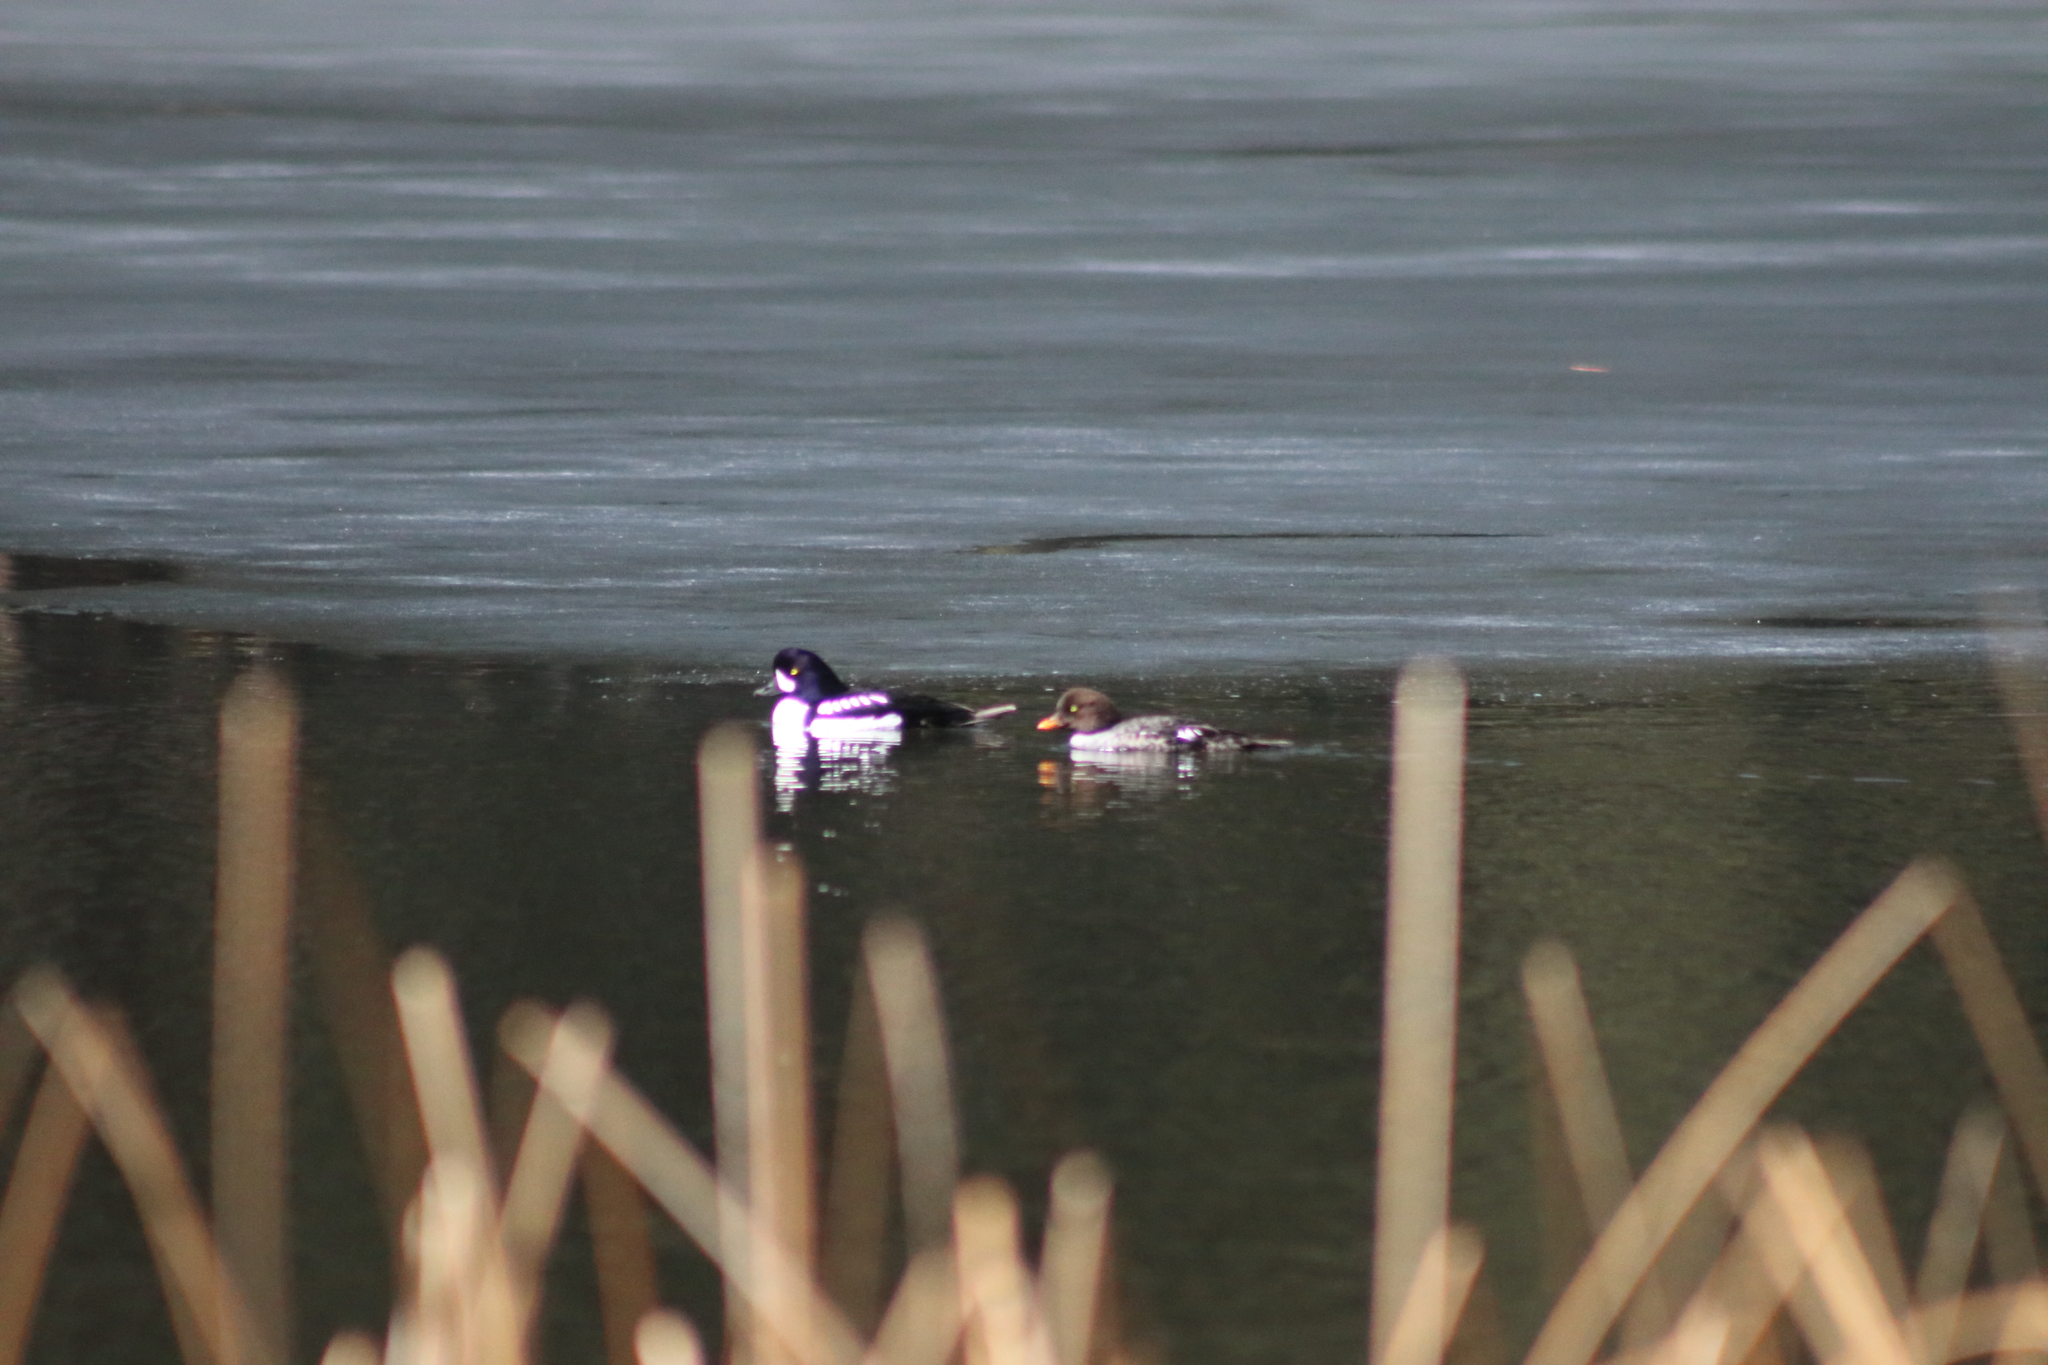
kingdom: Animalia
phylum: Chordata
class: Aves
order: Anseriformes
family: Anatidae
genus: Bucephala
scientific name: Bucephala islandica
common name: Barrow's goldeneye
